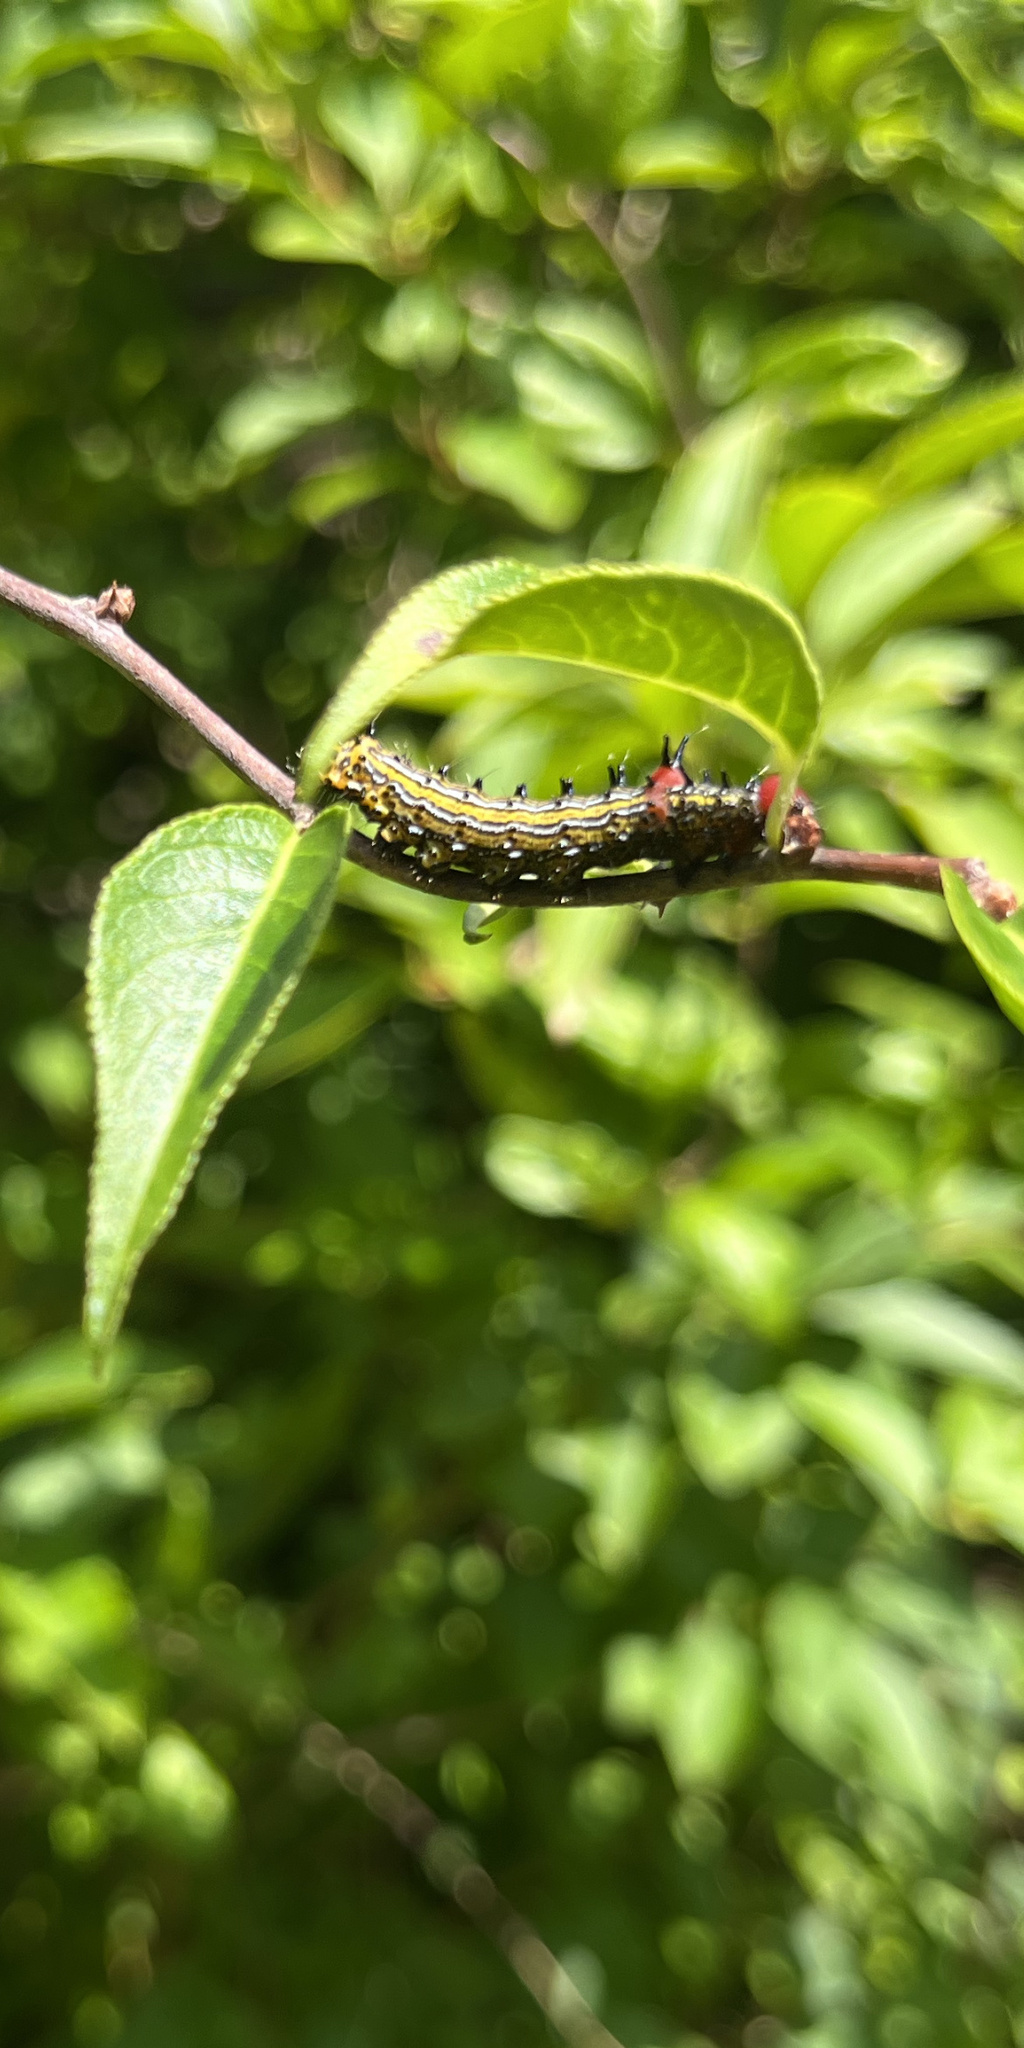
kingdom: Animalia
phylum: Arthropoda
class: Insecta
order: Lepidoptera
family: Notodontidae
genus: Schizura
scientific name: Schizura
